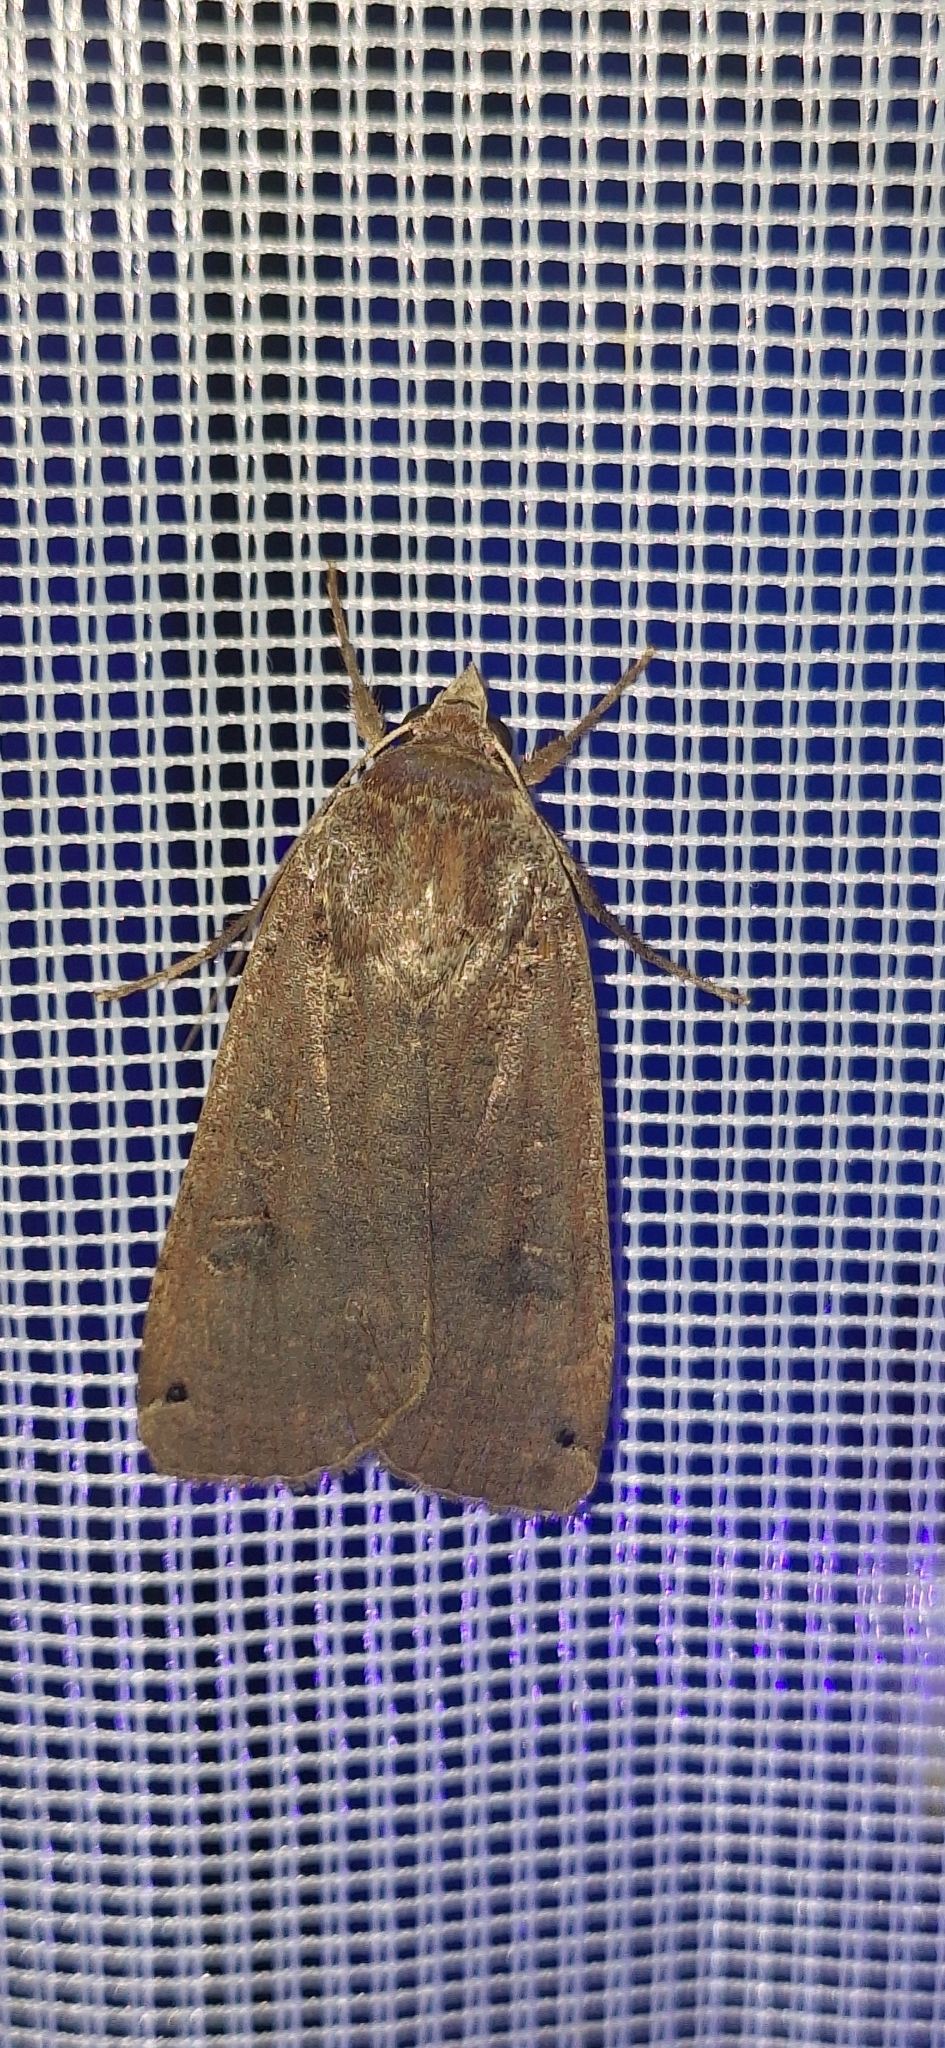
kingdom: Animalia
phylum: Arthropoda
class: Insecta
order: Lepidoptera
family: Noctuidae
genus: Noctua
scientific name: Noctua pronuba
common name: Large yellow underwing
